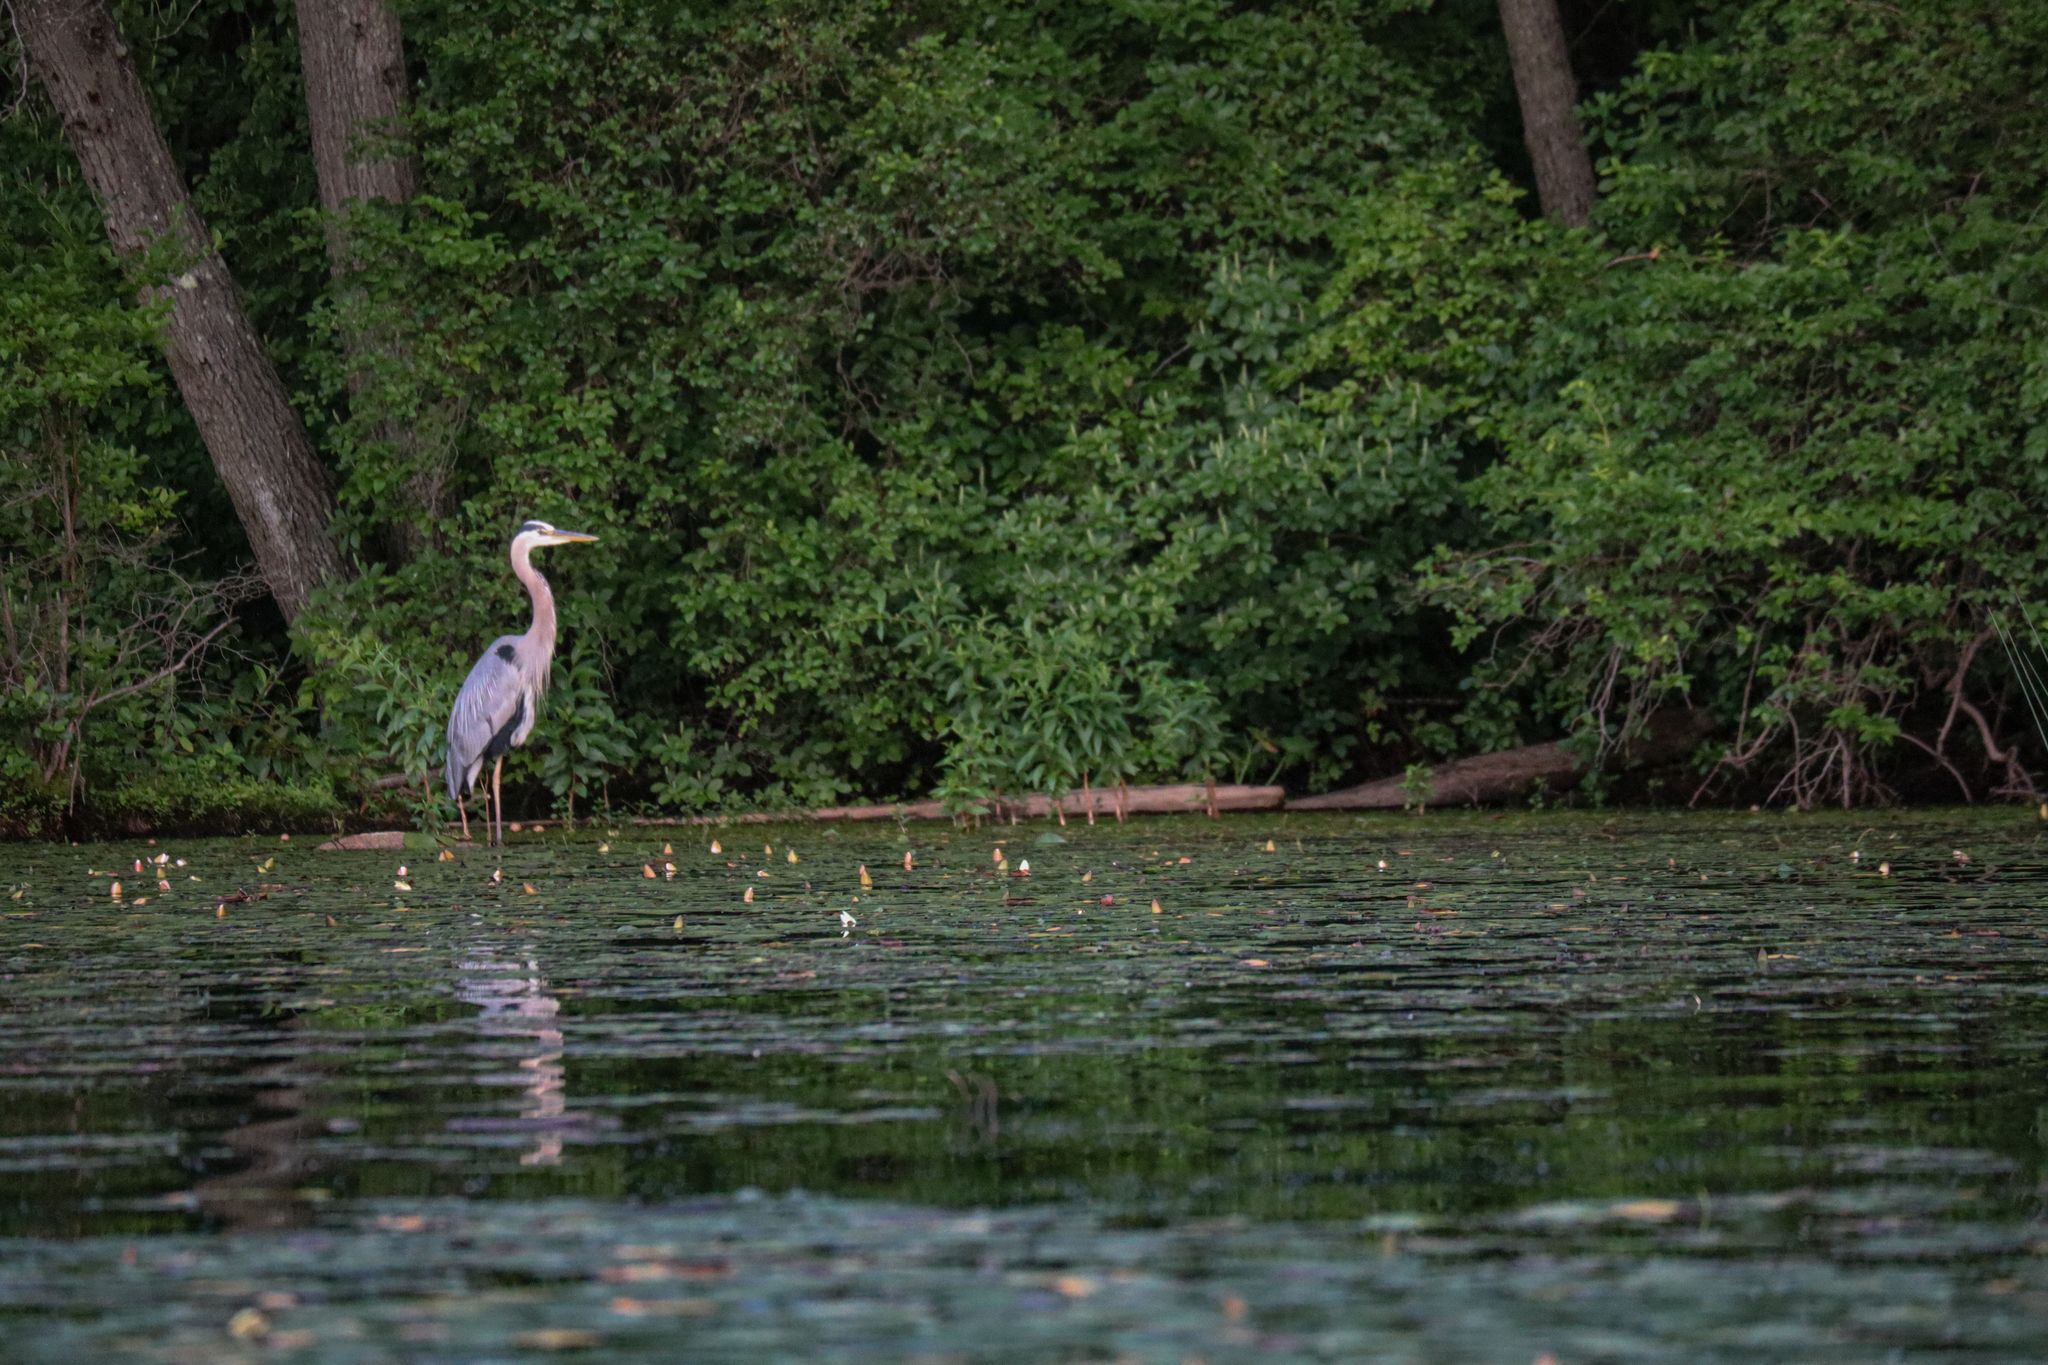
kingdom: Animalia
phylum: Chordata
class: Aves
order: Pelecaniformes
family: Ardeidae
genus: Ardea
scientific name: Ardea herodias
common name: Great blue heron
